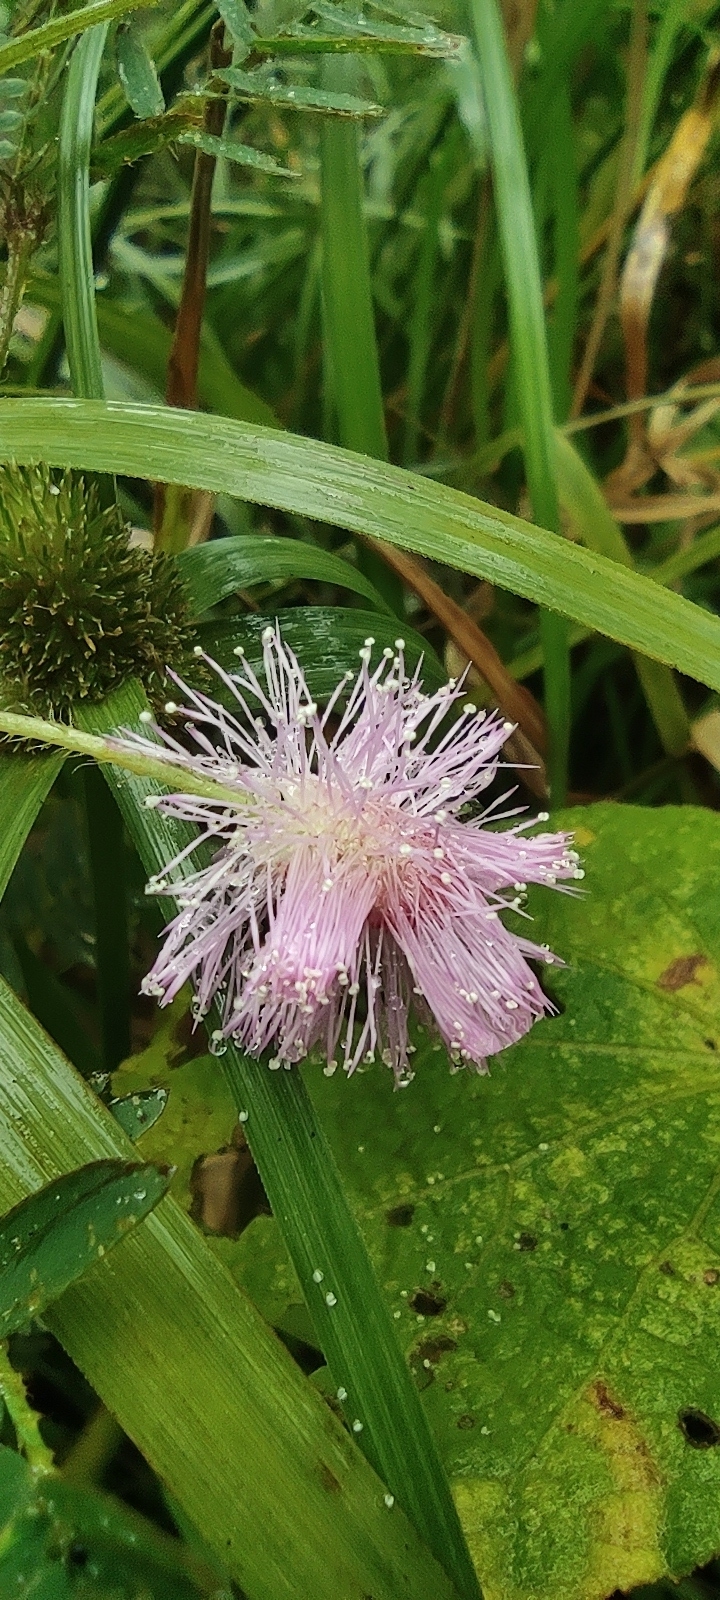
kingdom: Plantae
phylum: Tracheophyta
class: Magnoliopsida
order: Fabales
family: Fabaceae
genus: Mimosa
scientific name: Mimosa pudica
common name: Sensitive plant
